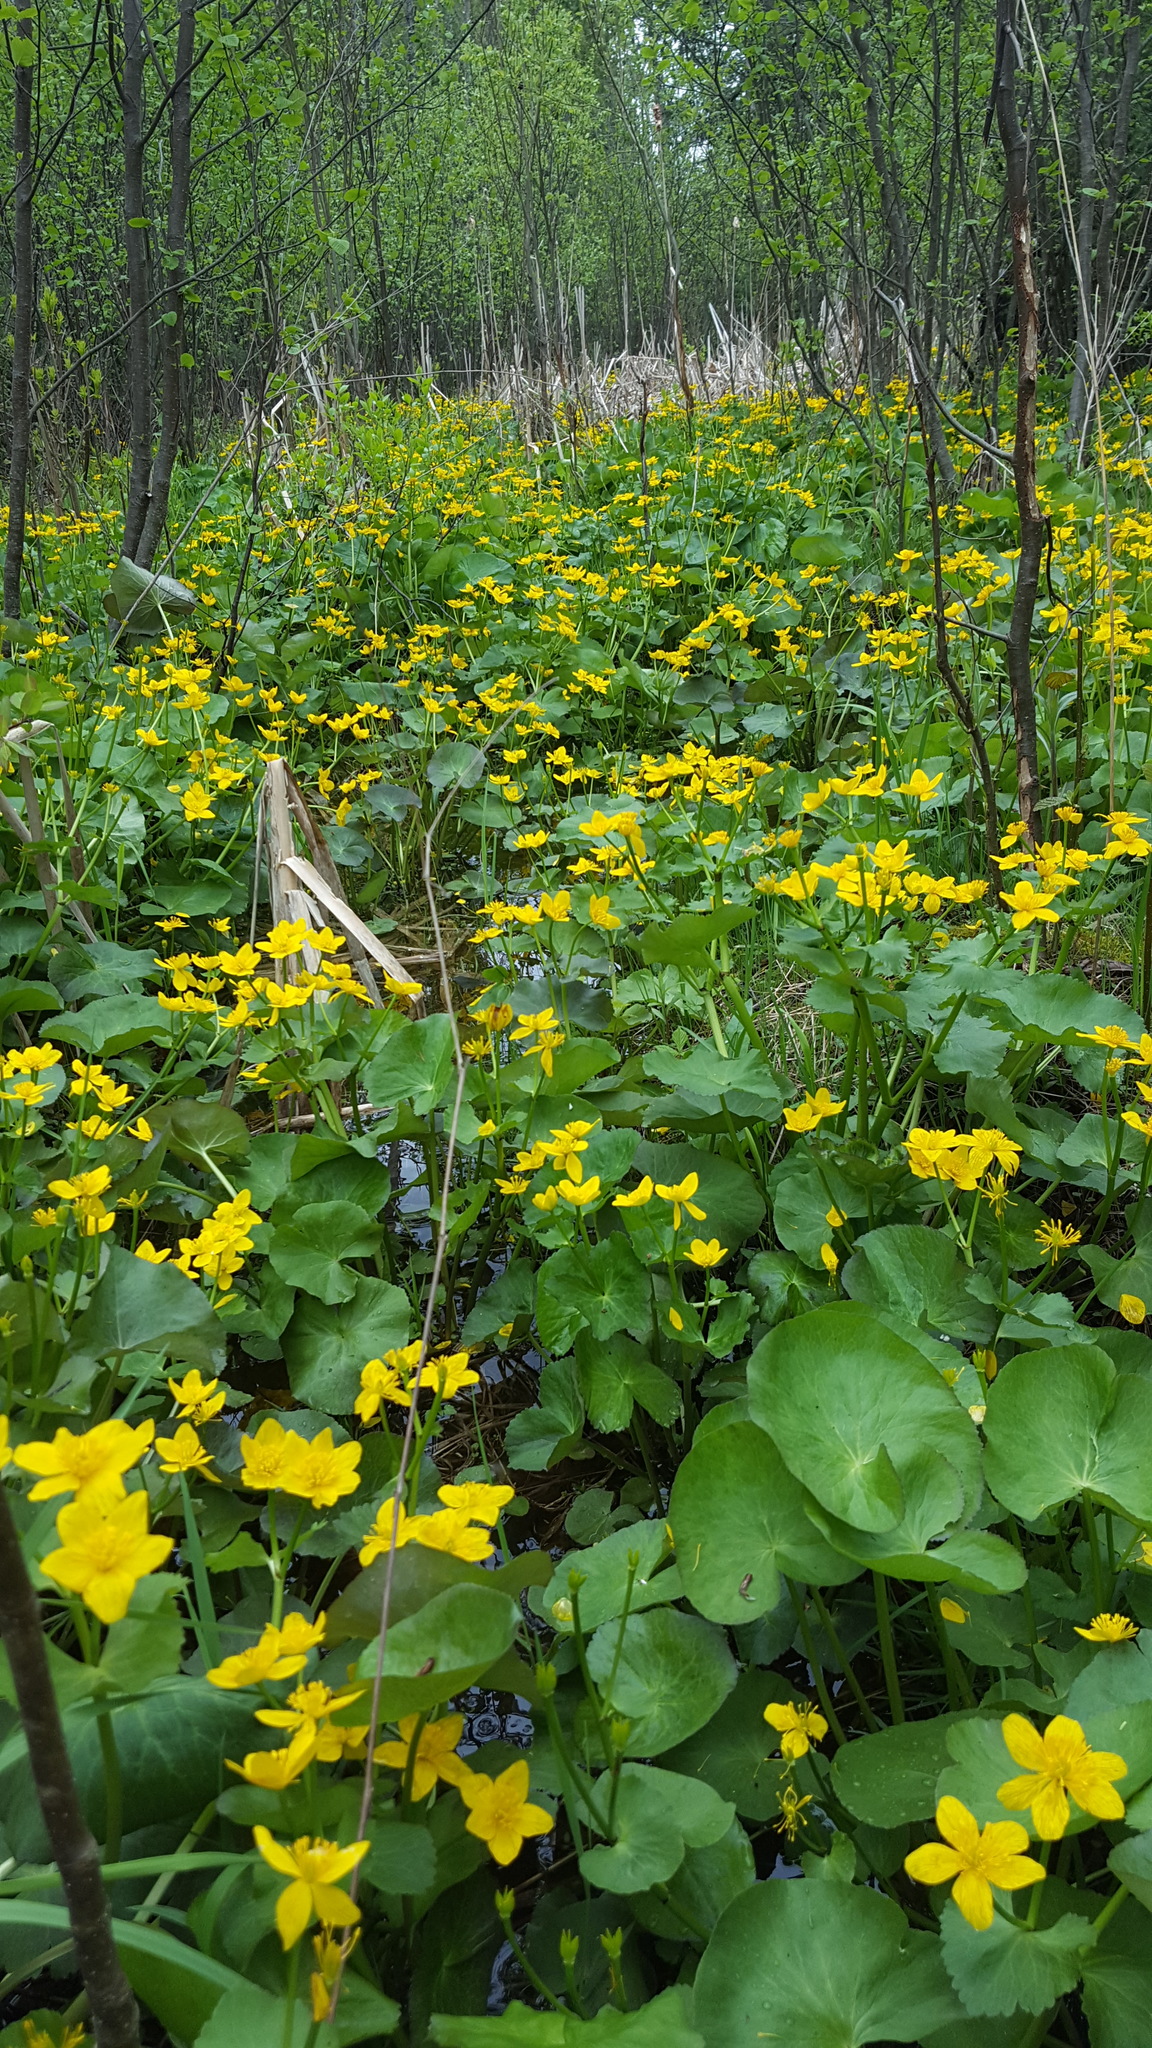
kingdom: Plantae
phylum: Tracheophyta
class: Magnoliopsida
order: Ranunculales
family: Ranunculaceae
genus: Caltha
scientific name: Caltha palustris
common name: Marsh marigold
